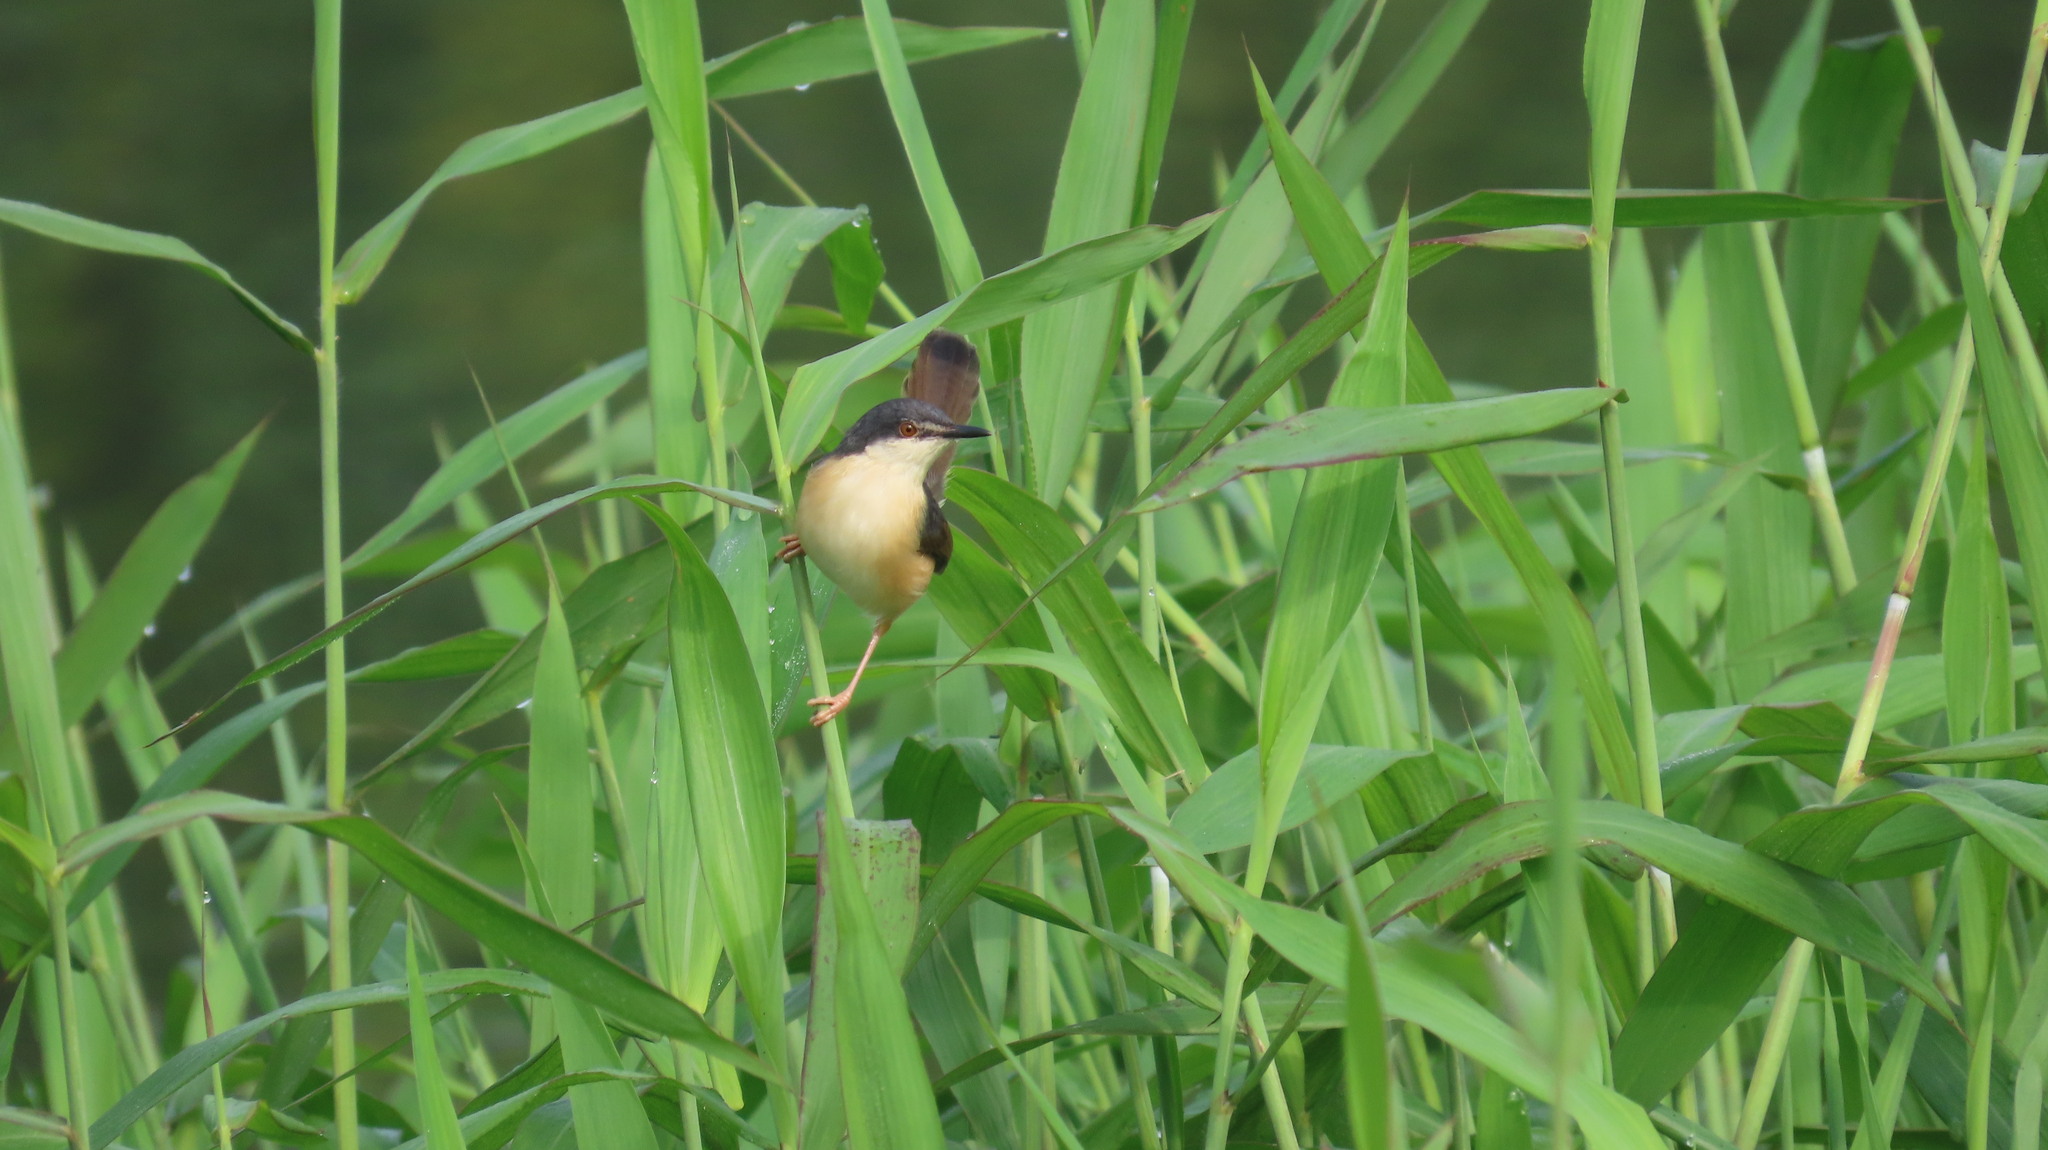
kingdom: Animalia
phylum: Chordata
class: Aves
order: Passeriformes
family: Cisticolidae
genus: Prinia
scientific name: Prinia socialis
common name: Ashy prinia
